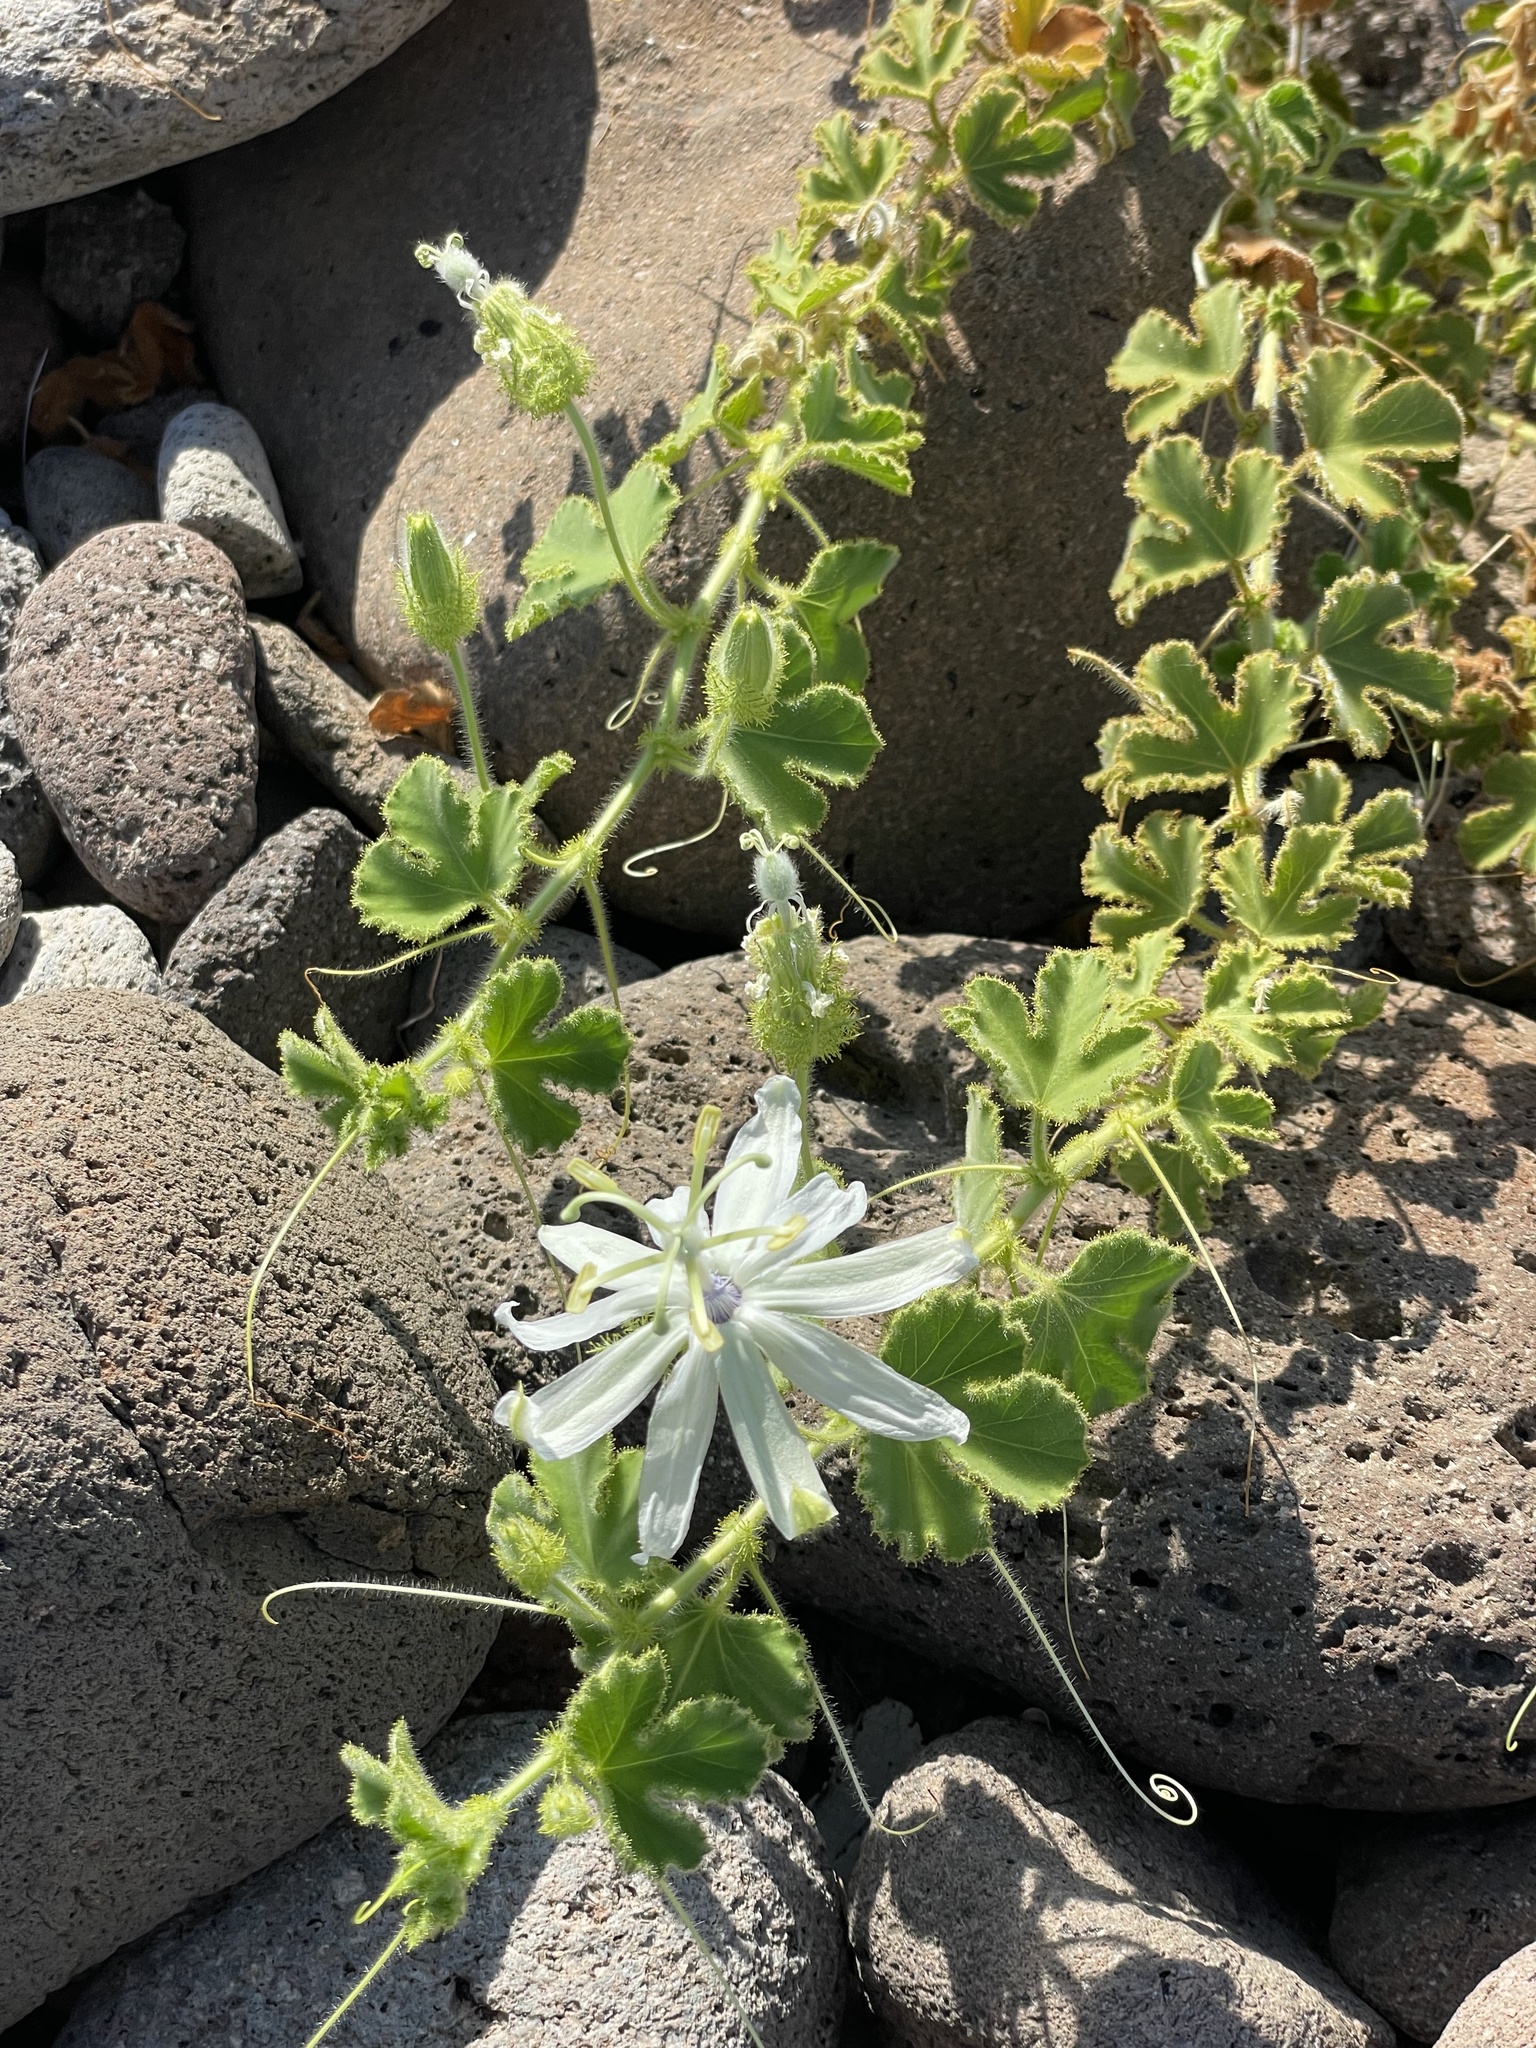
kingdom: Plantae
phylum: Tracheophyta
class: Magnoliopsida
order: Malpighiales
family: Passifloraceae
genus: Passiflora
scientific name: Passiflora palmeri
